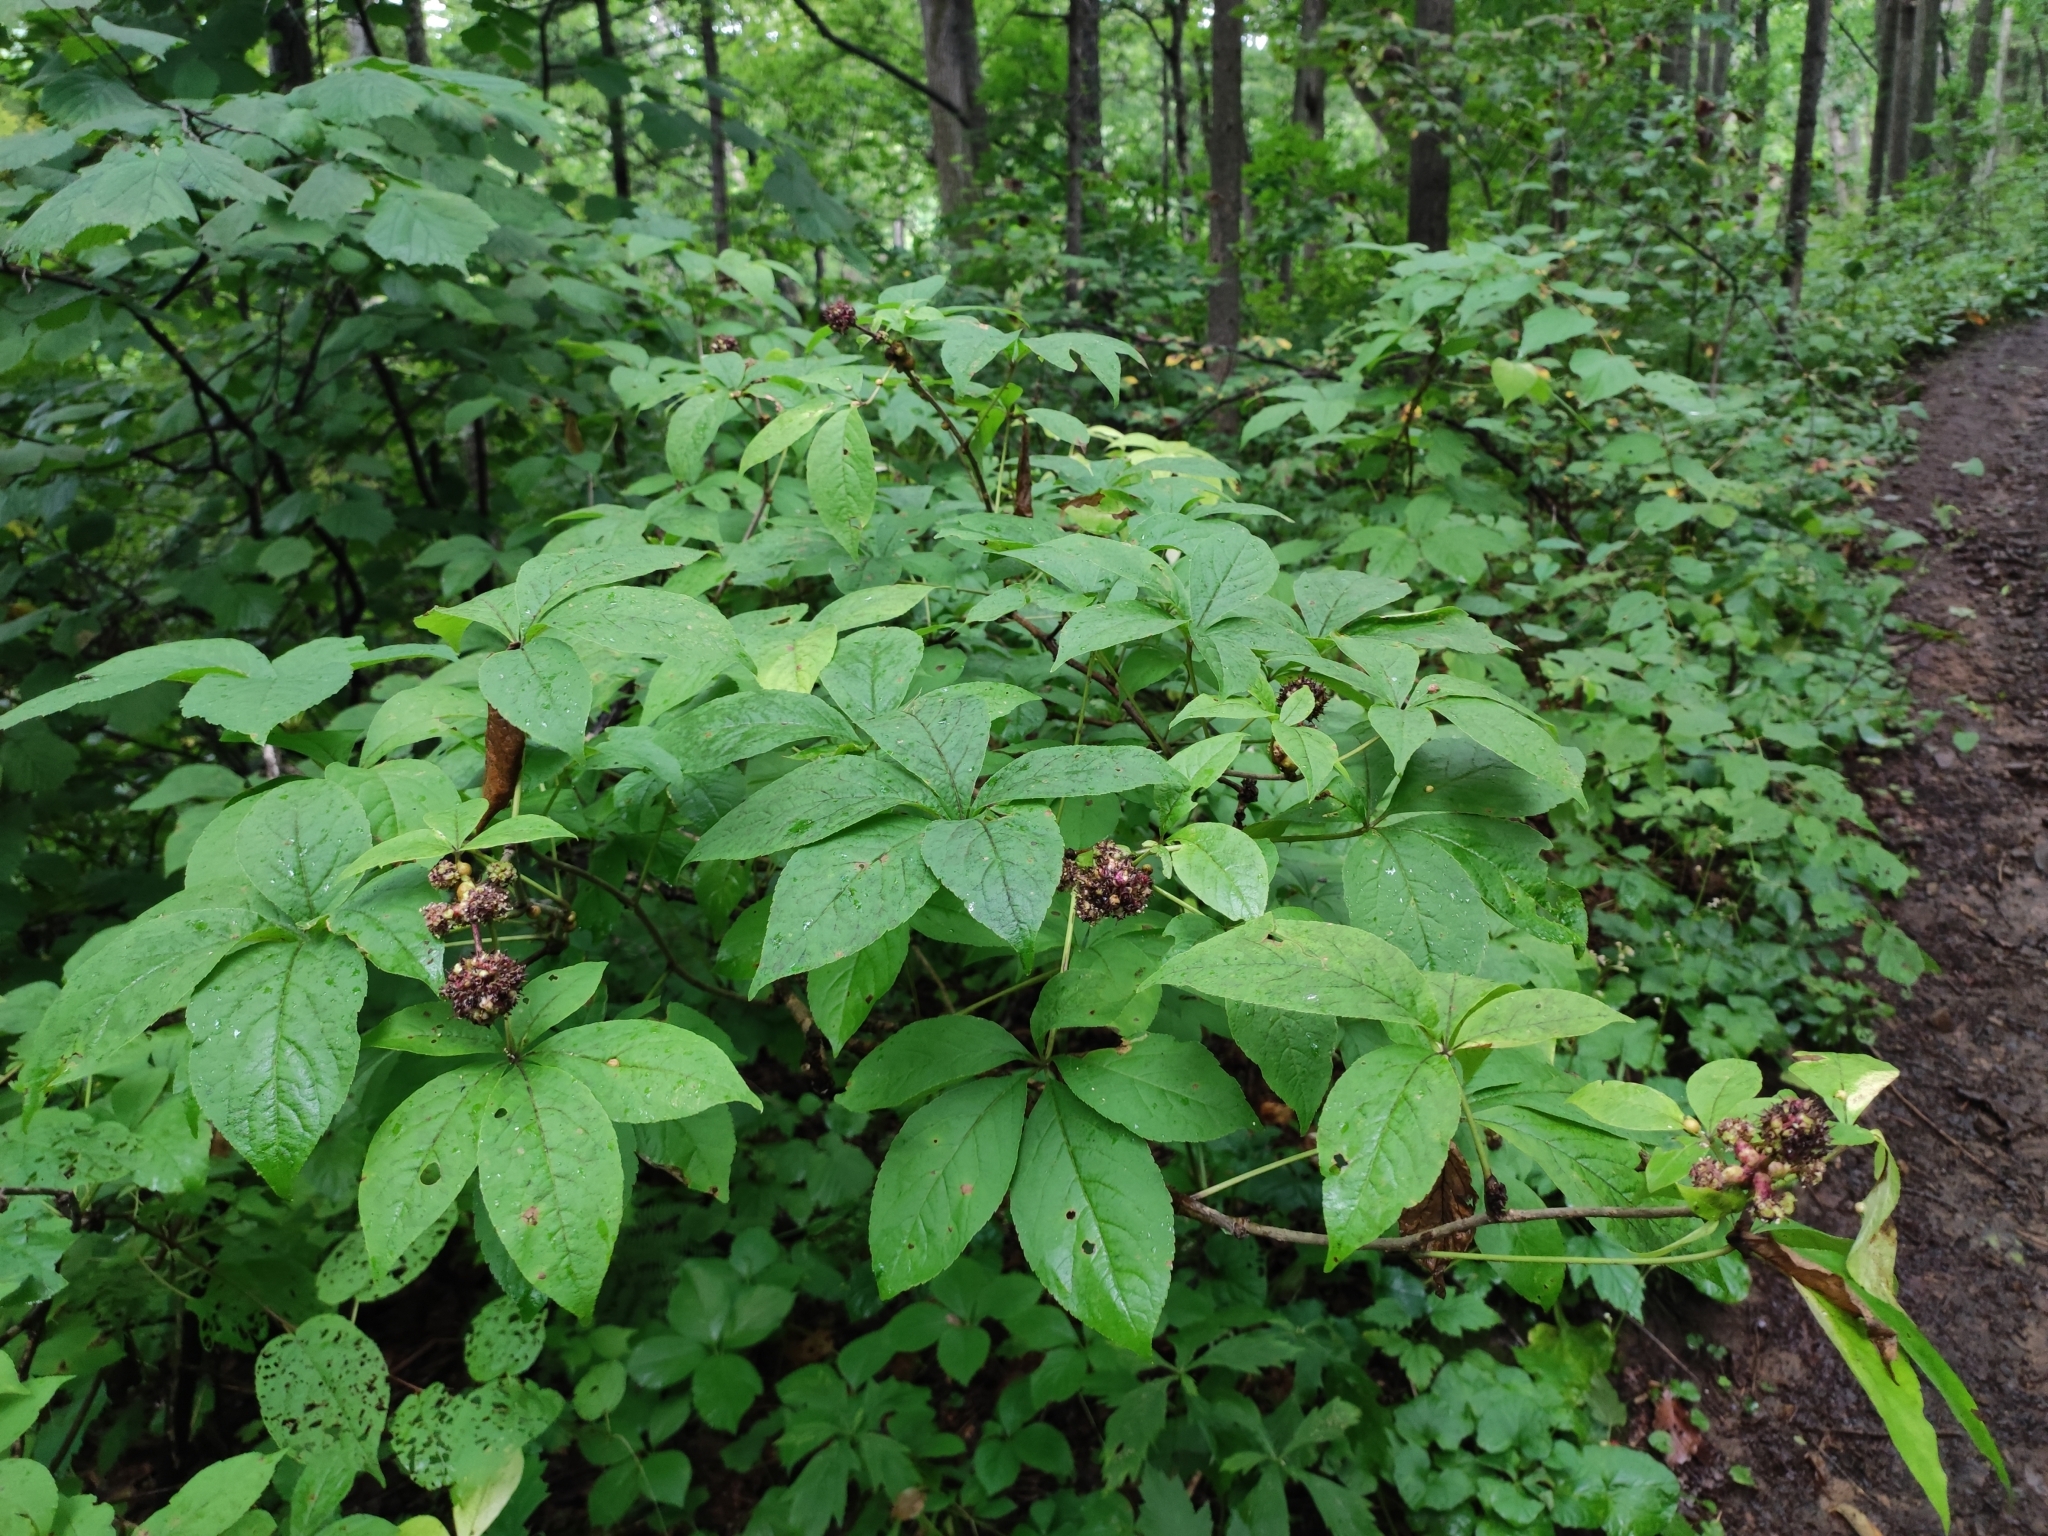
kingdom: Plantae
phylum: Tracheophyta
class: Magnoliopsida
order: Apiales
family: Araliaceae
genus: Eleutherococcus
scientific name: Eleutherococcus sessiliflorus
